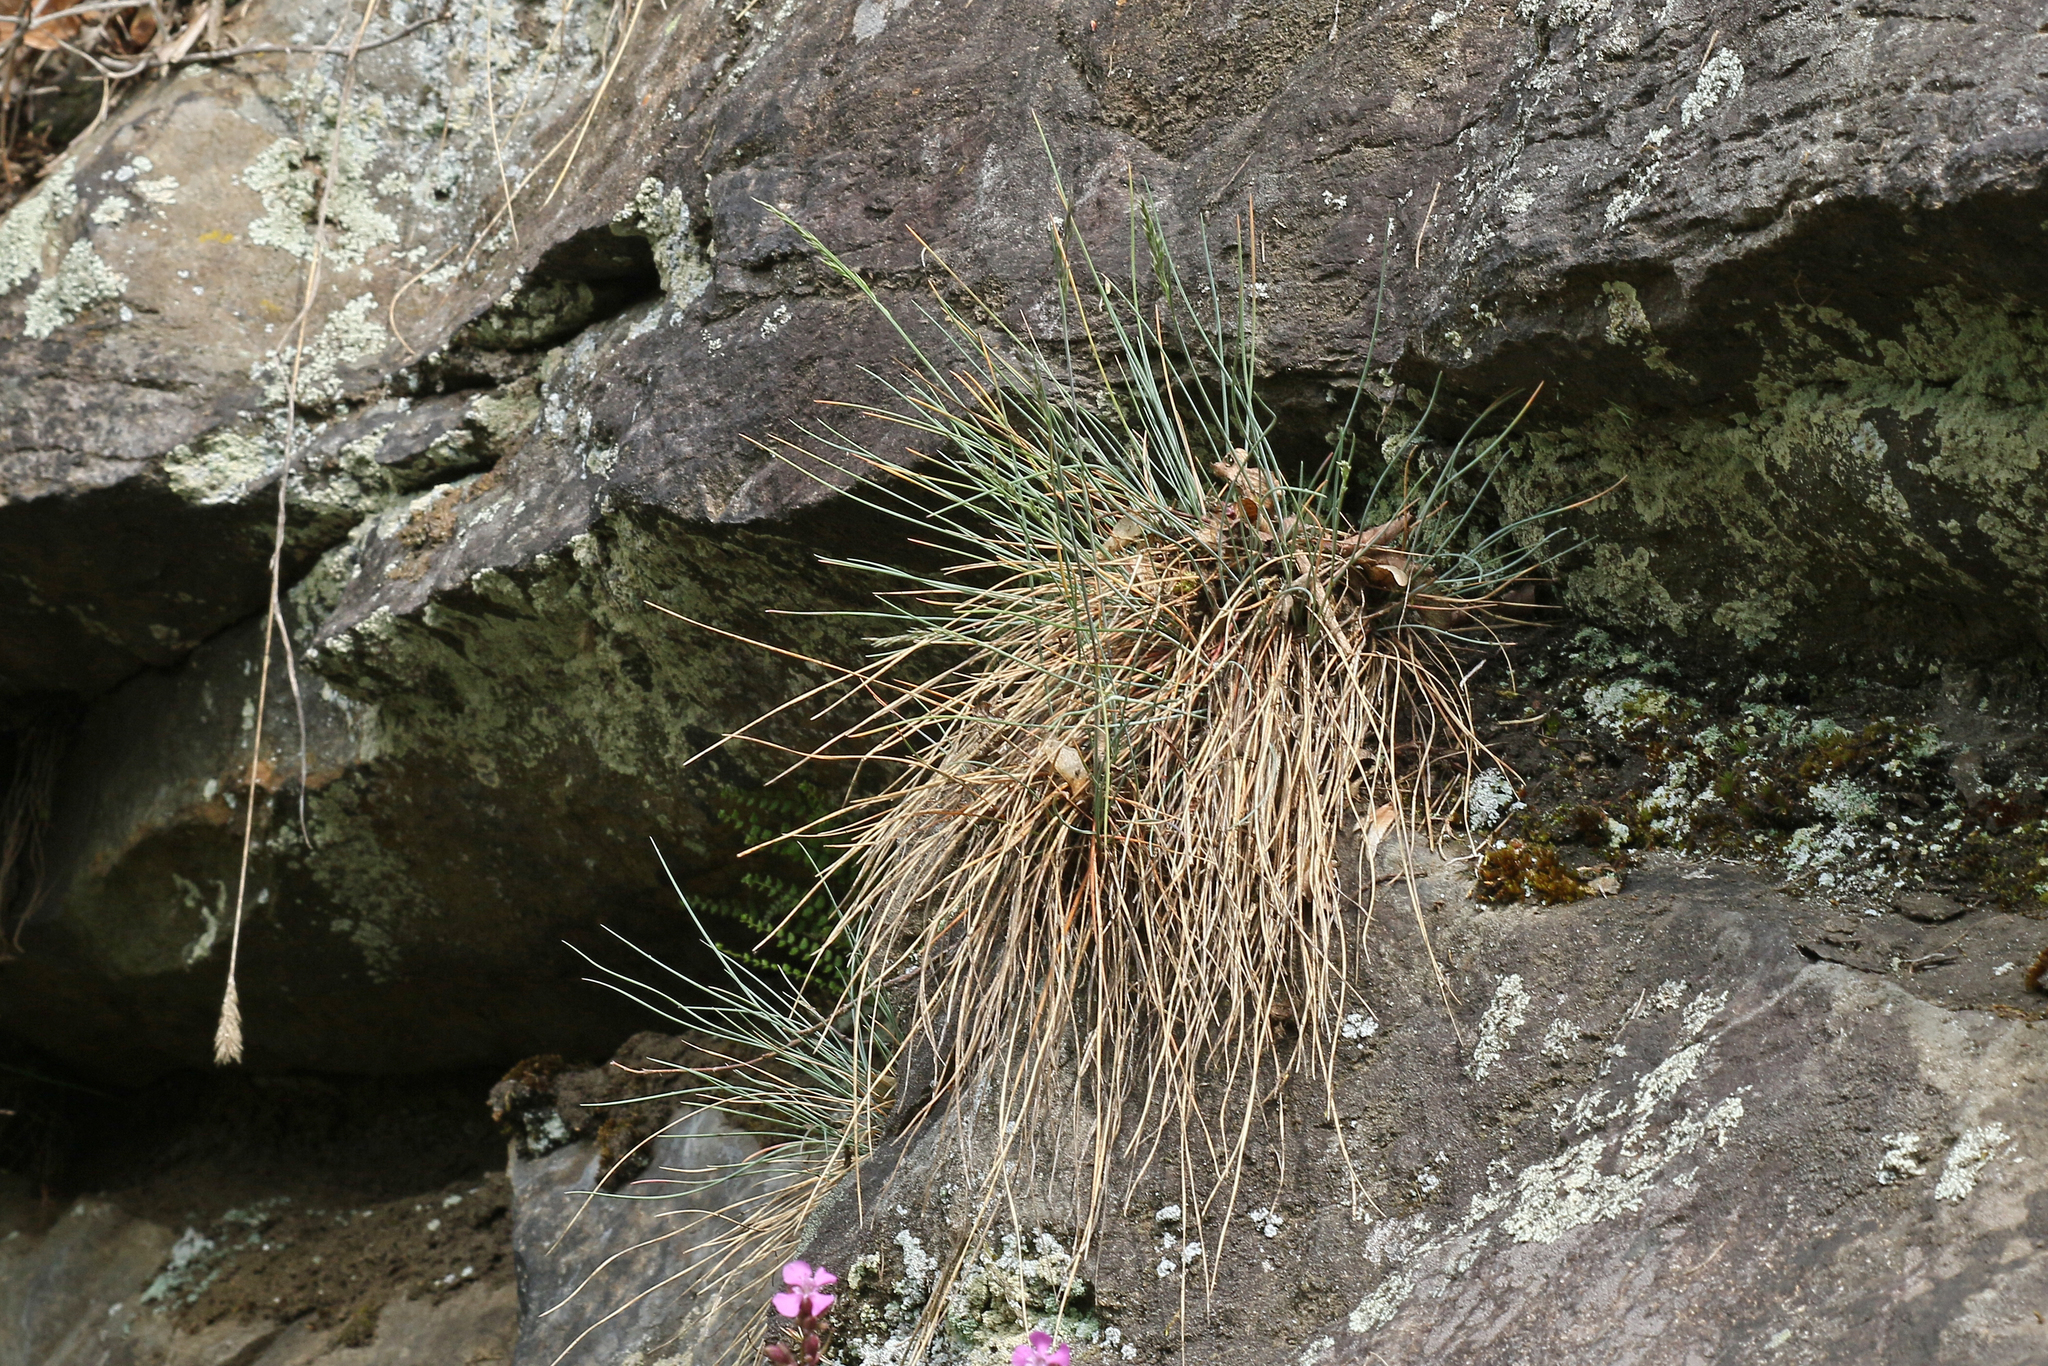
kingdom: Plantae
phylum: Tracheophyta
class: Liliopsida
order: Poales
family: Poaceae
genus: Festuca
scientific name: Festuca pallens
